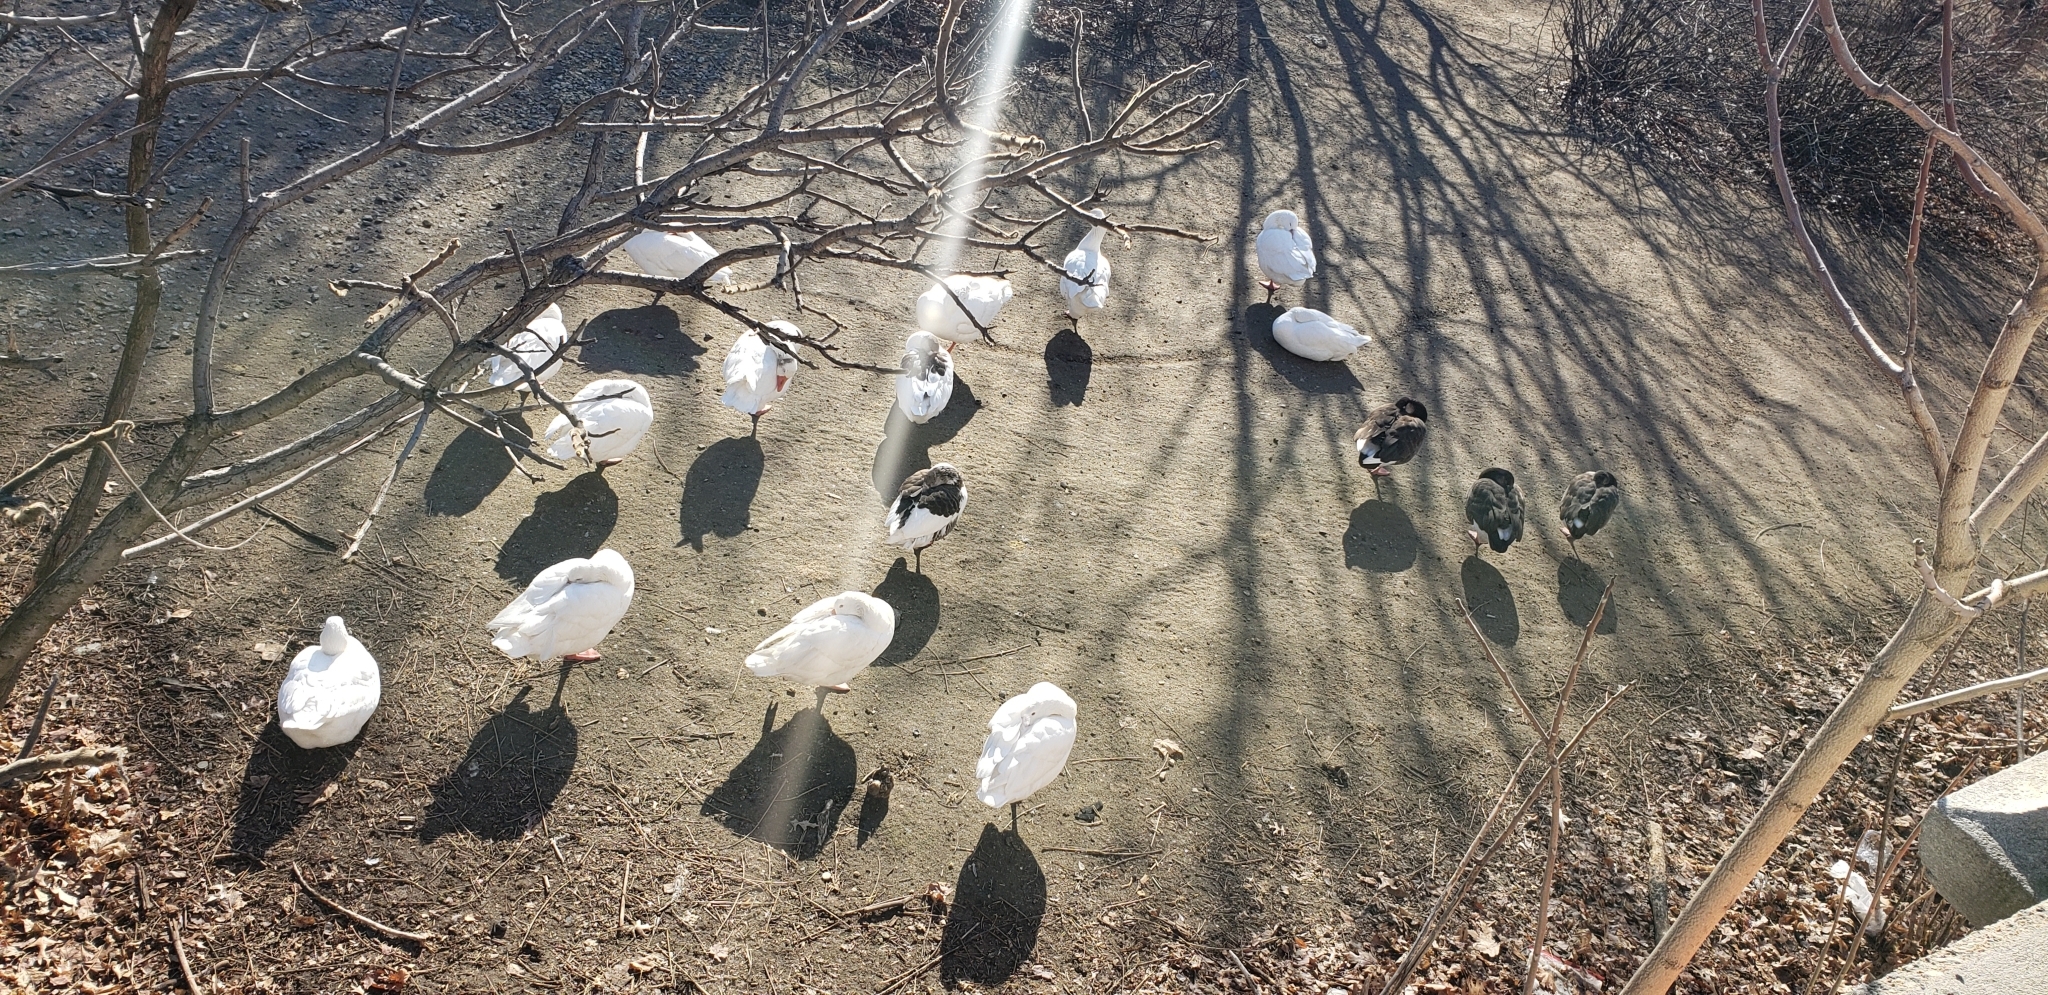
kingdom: Animalia
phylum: Chordata
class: Aves
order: Anseriformes
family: Anatidae
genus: Anser
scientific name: Anser anser
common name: Greylag goose
